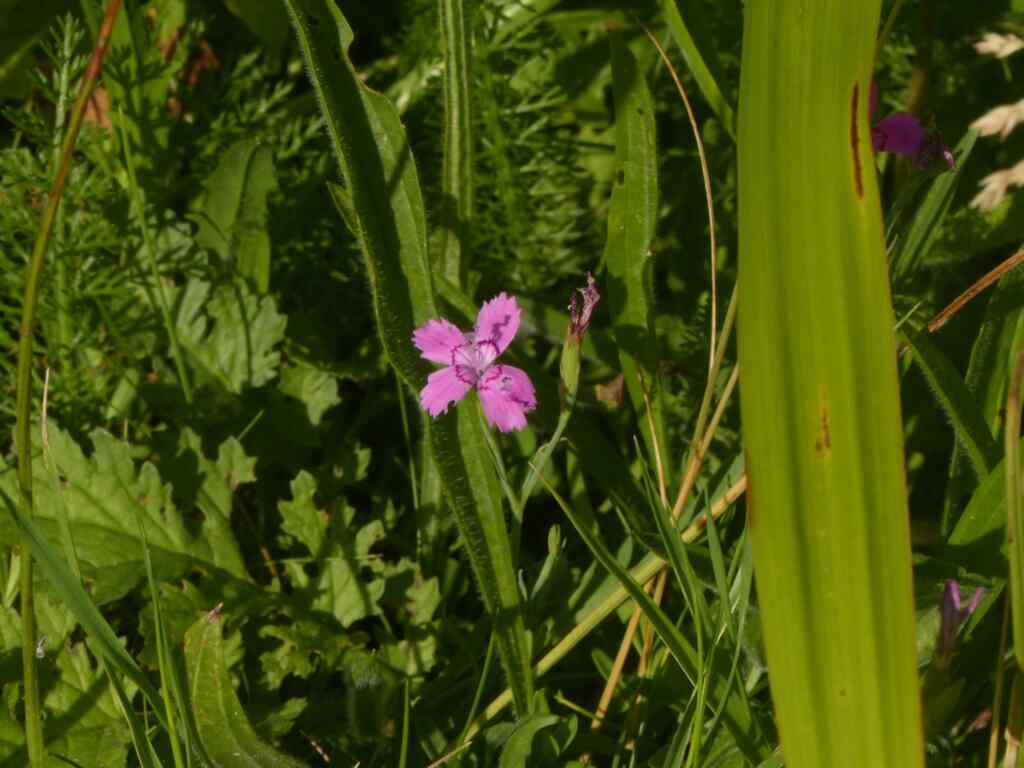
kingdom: Plantae
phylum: Tracheophyta
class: Magnoliopsida
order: Caryophyllales
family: Caryophyllaceae
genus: Dianthus
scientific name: Dianthus deltoides
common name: Maiden pink
